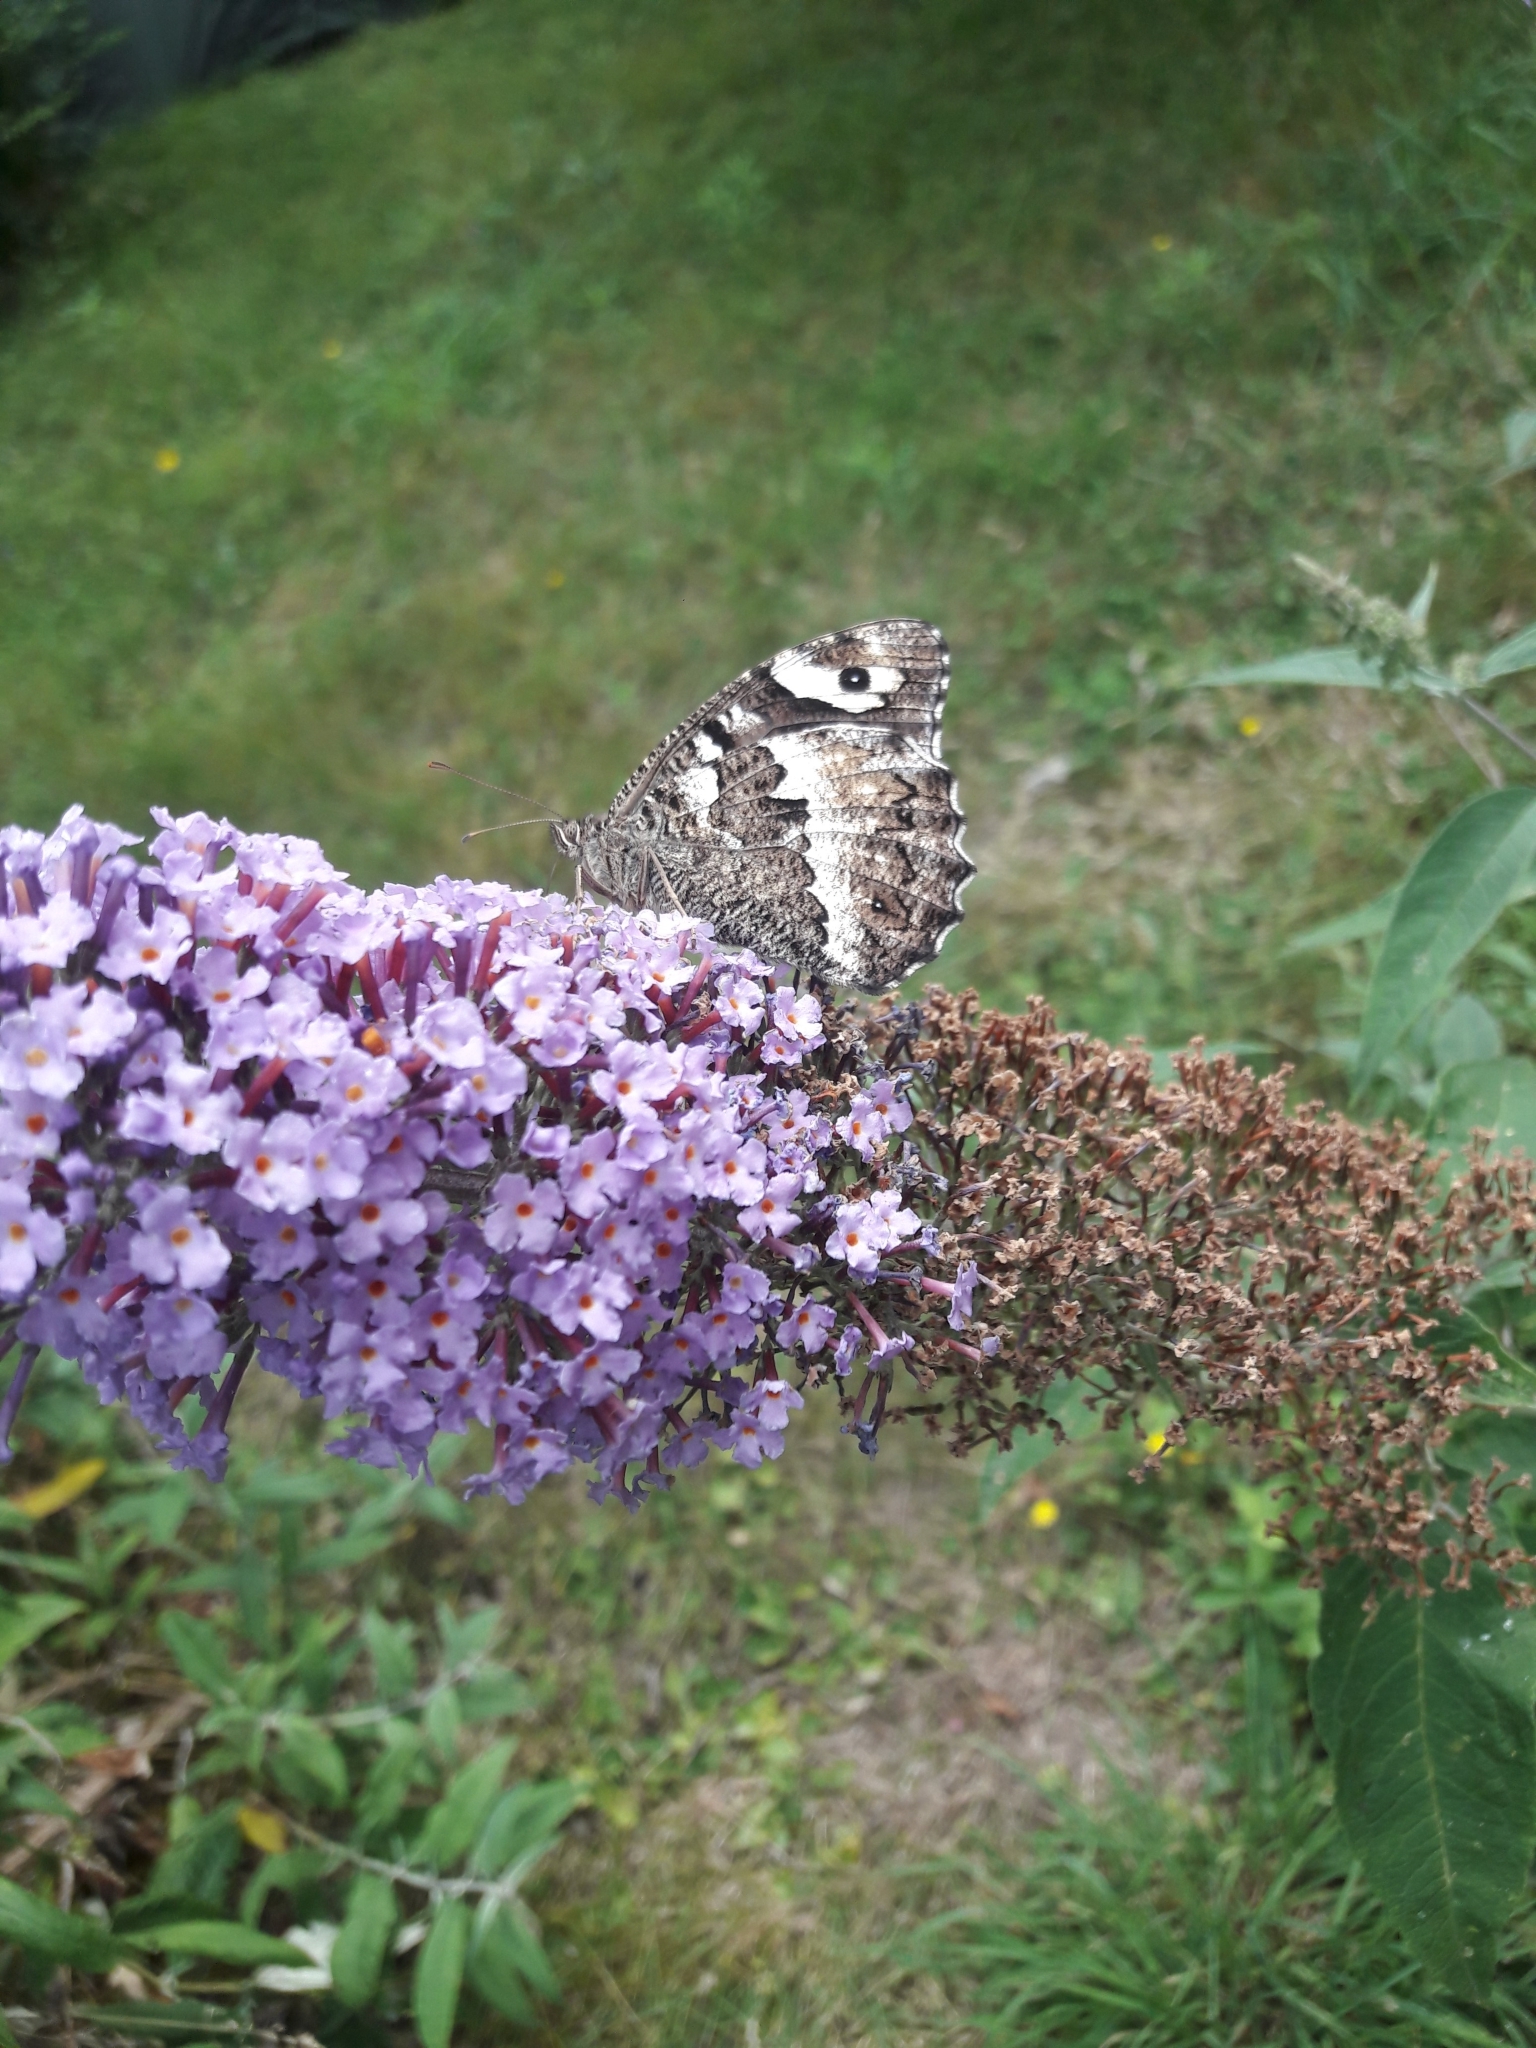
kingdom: Animalia
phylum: Arthropoda
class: Insecta
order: Lepidoptera
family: Lycaenidae
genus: Loweia
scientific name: Loweia tityrus
